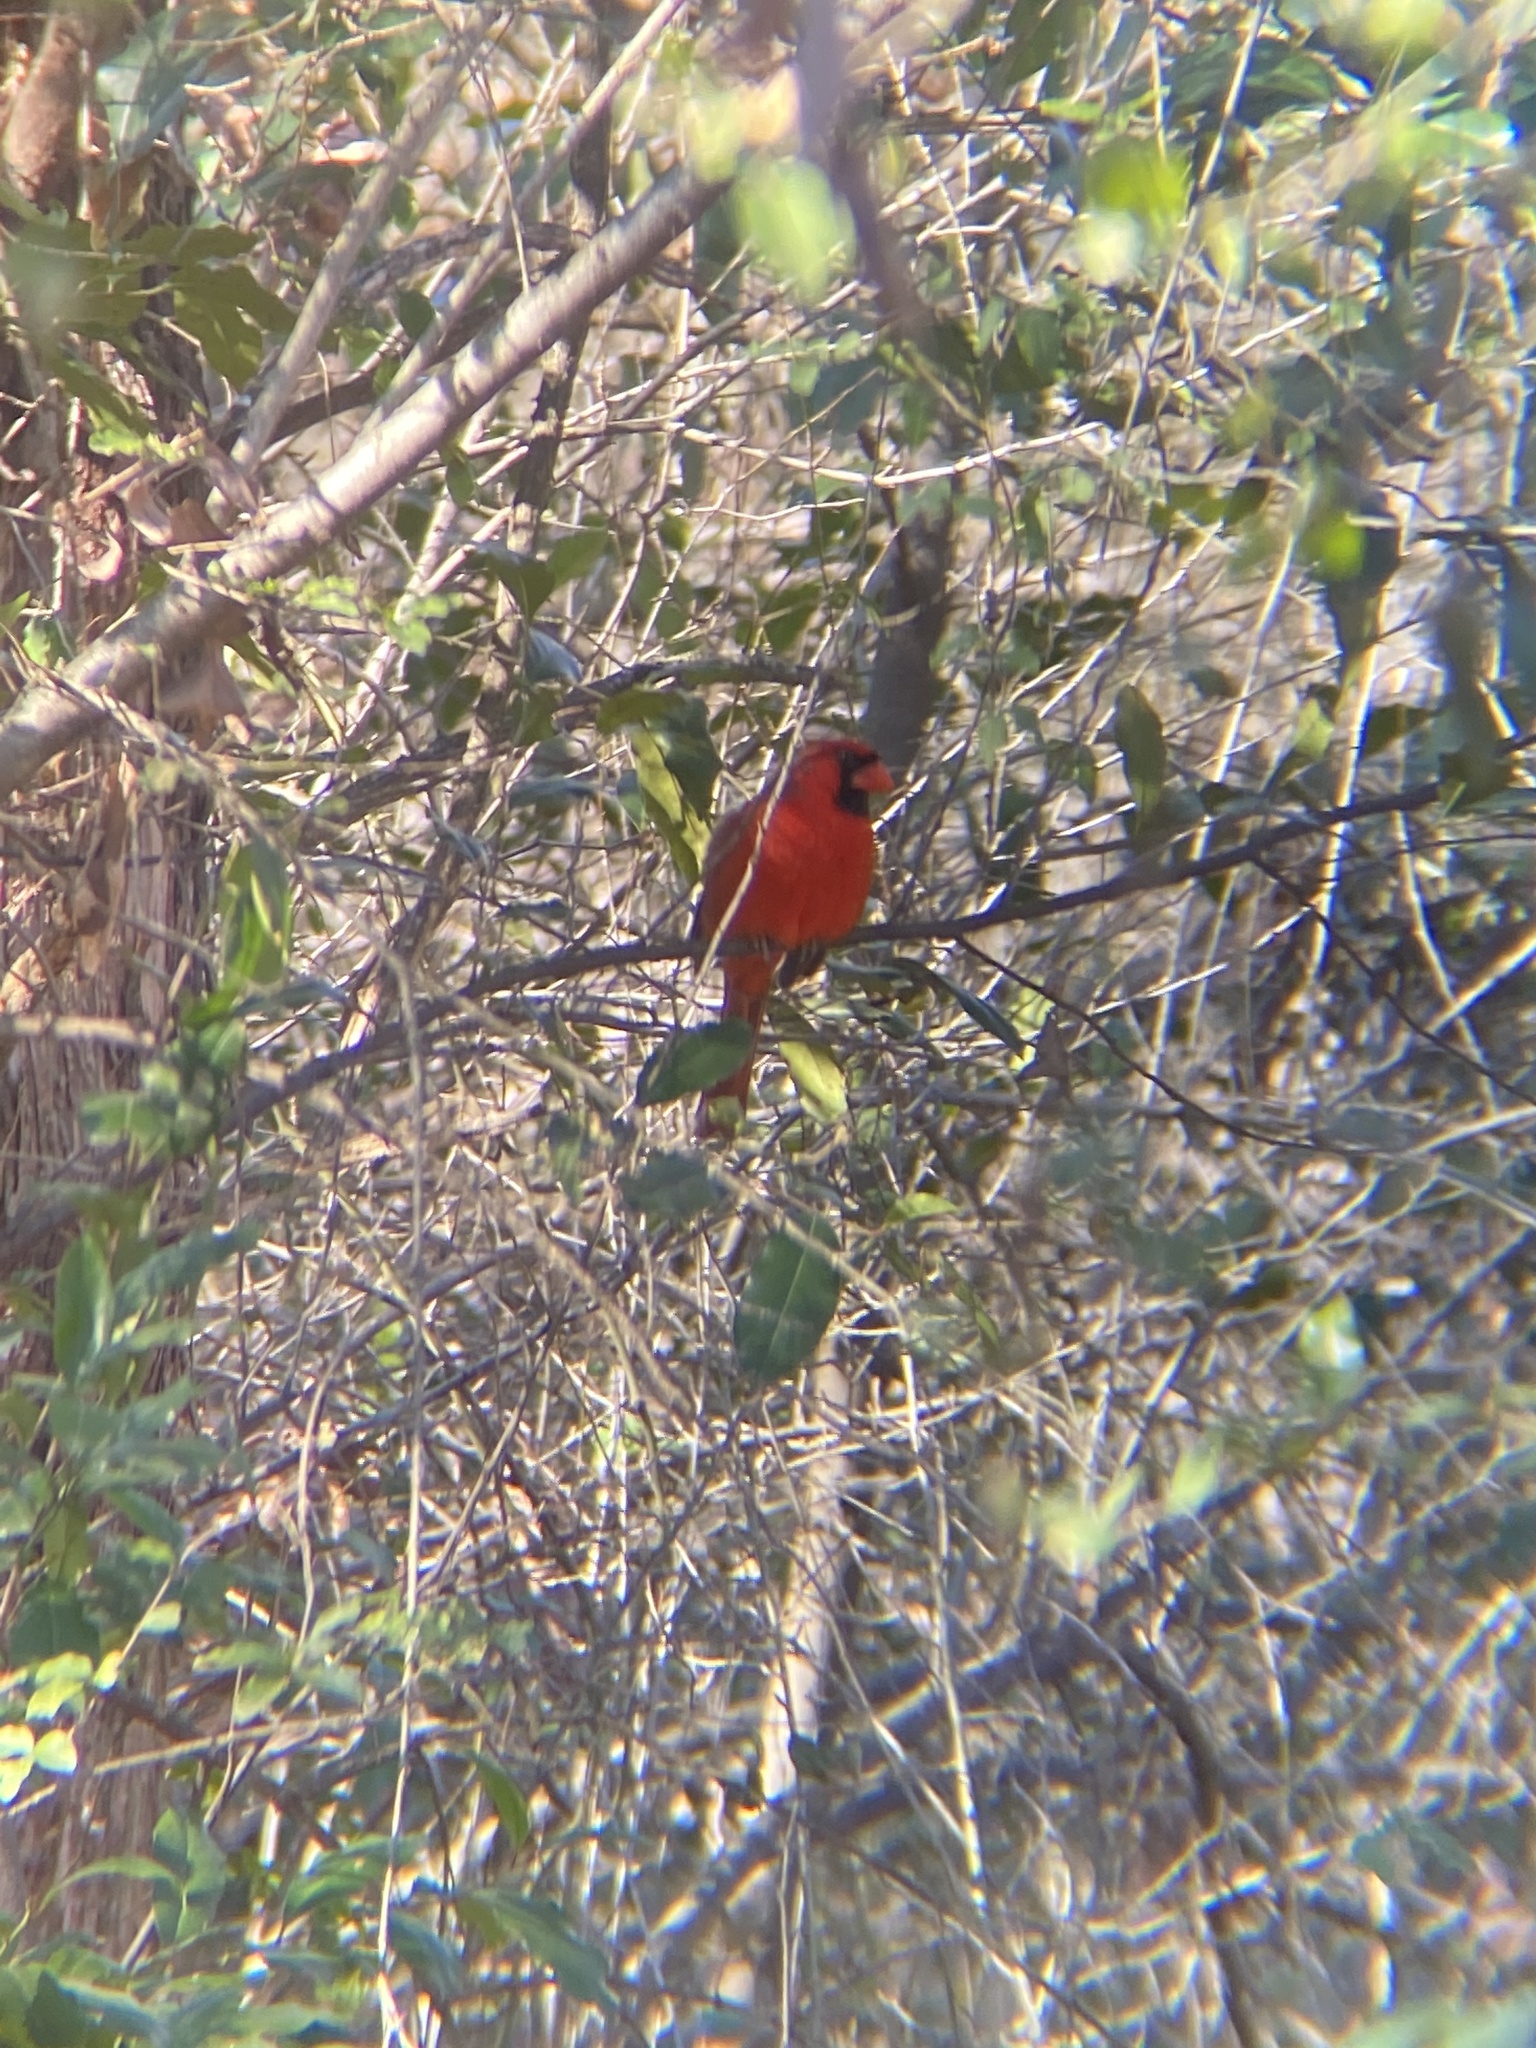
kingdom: Animalia
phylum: Chordata
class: Aves
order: Passeriformes
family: Cardinalidae
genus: Cardinalis
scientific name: Cardinalis cardinalis
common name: Northern cardinal
